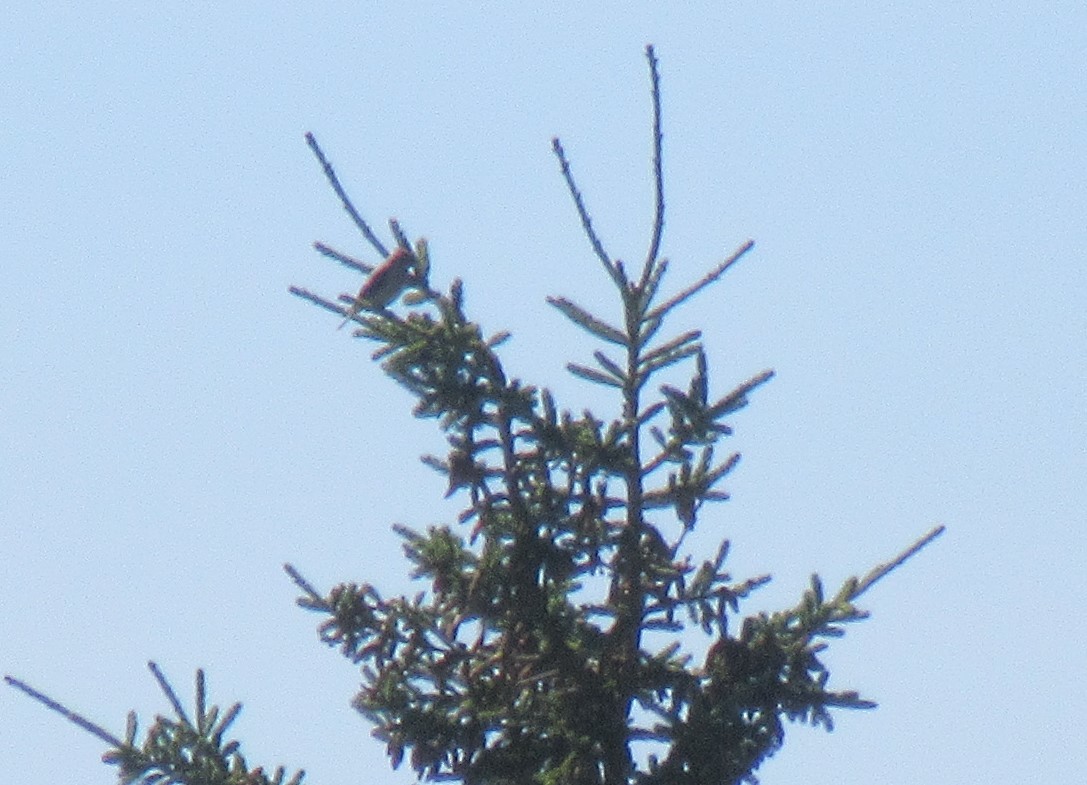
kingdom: Animalia
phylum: Chordata
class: Aves
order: Passeriformes
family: Bombycillidae
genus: Bombycilla
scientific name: Bombycilla cedrorum
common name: Cedar waxwing
